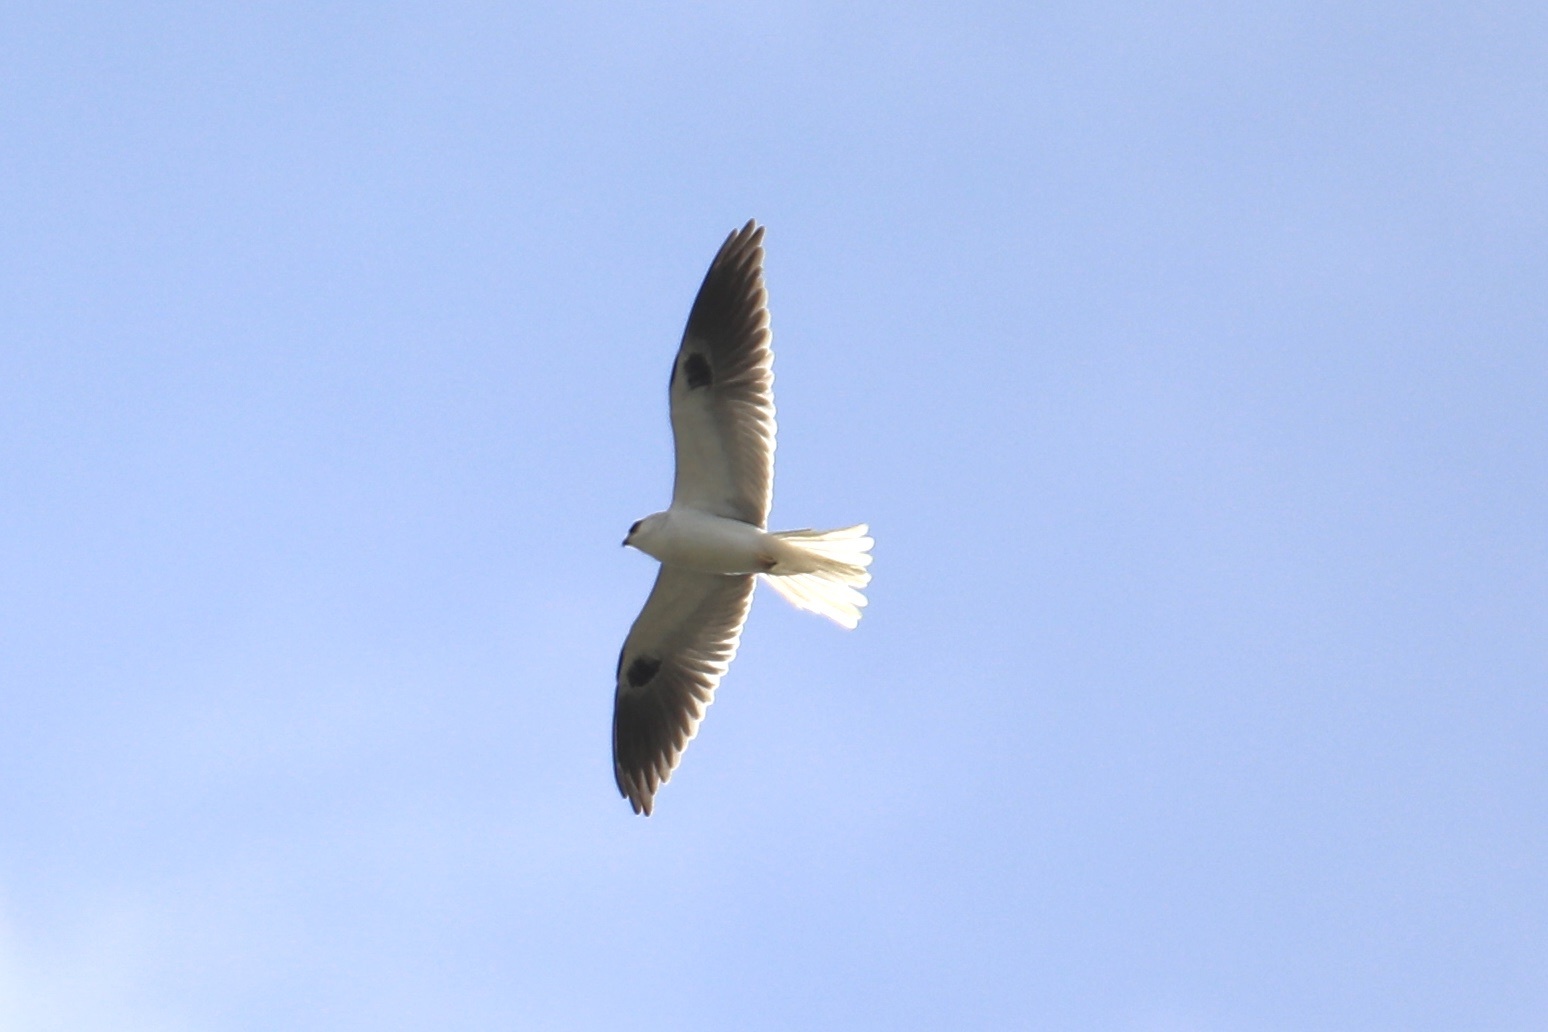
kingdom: Animalia
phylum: Chordata
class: Aves
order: Accipitriformes
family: Accipitridae
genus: Elanus
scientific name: Elanus leucurus
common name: White-tailed kite
